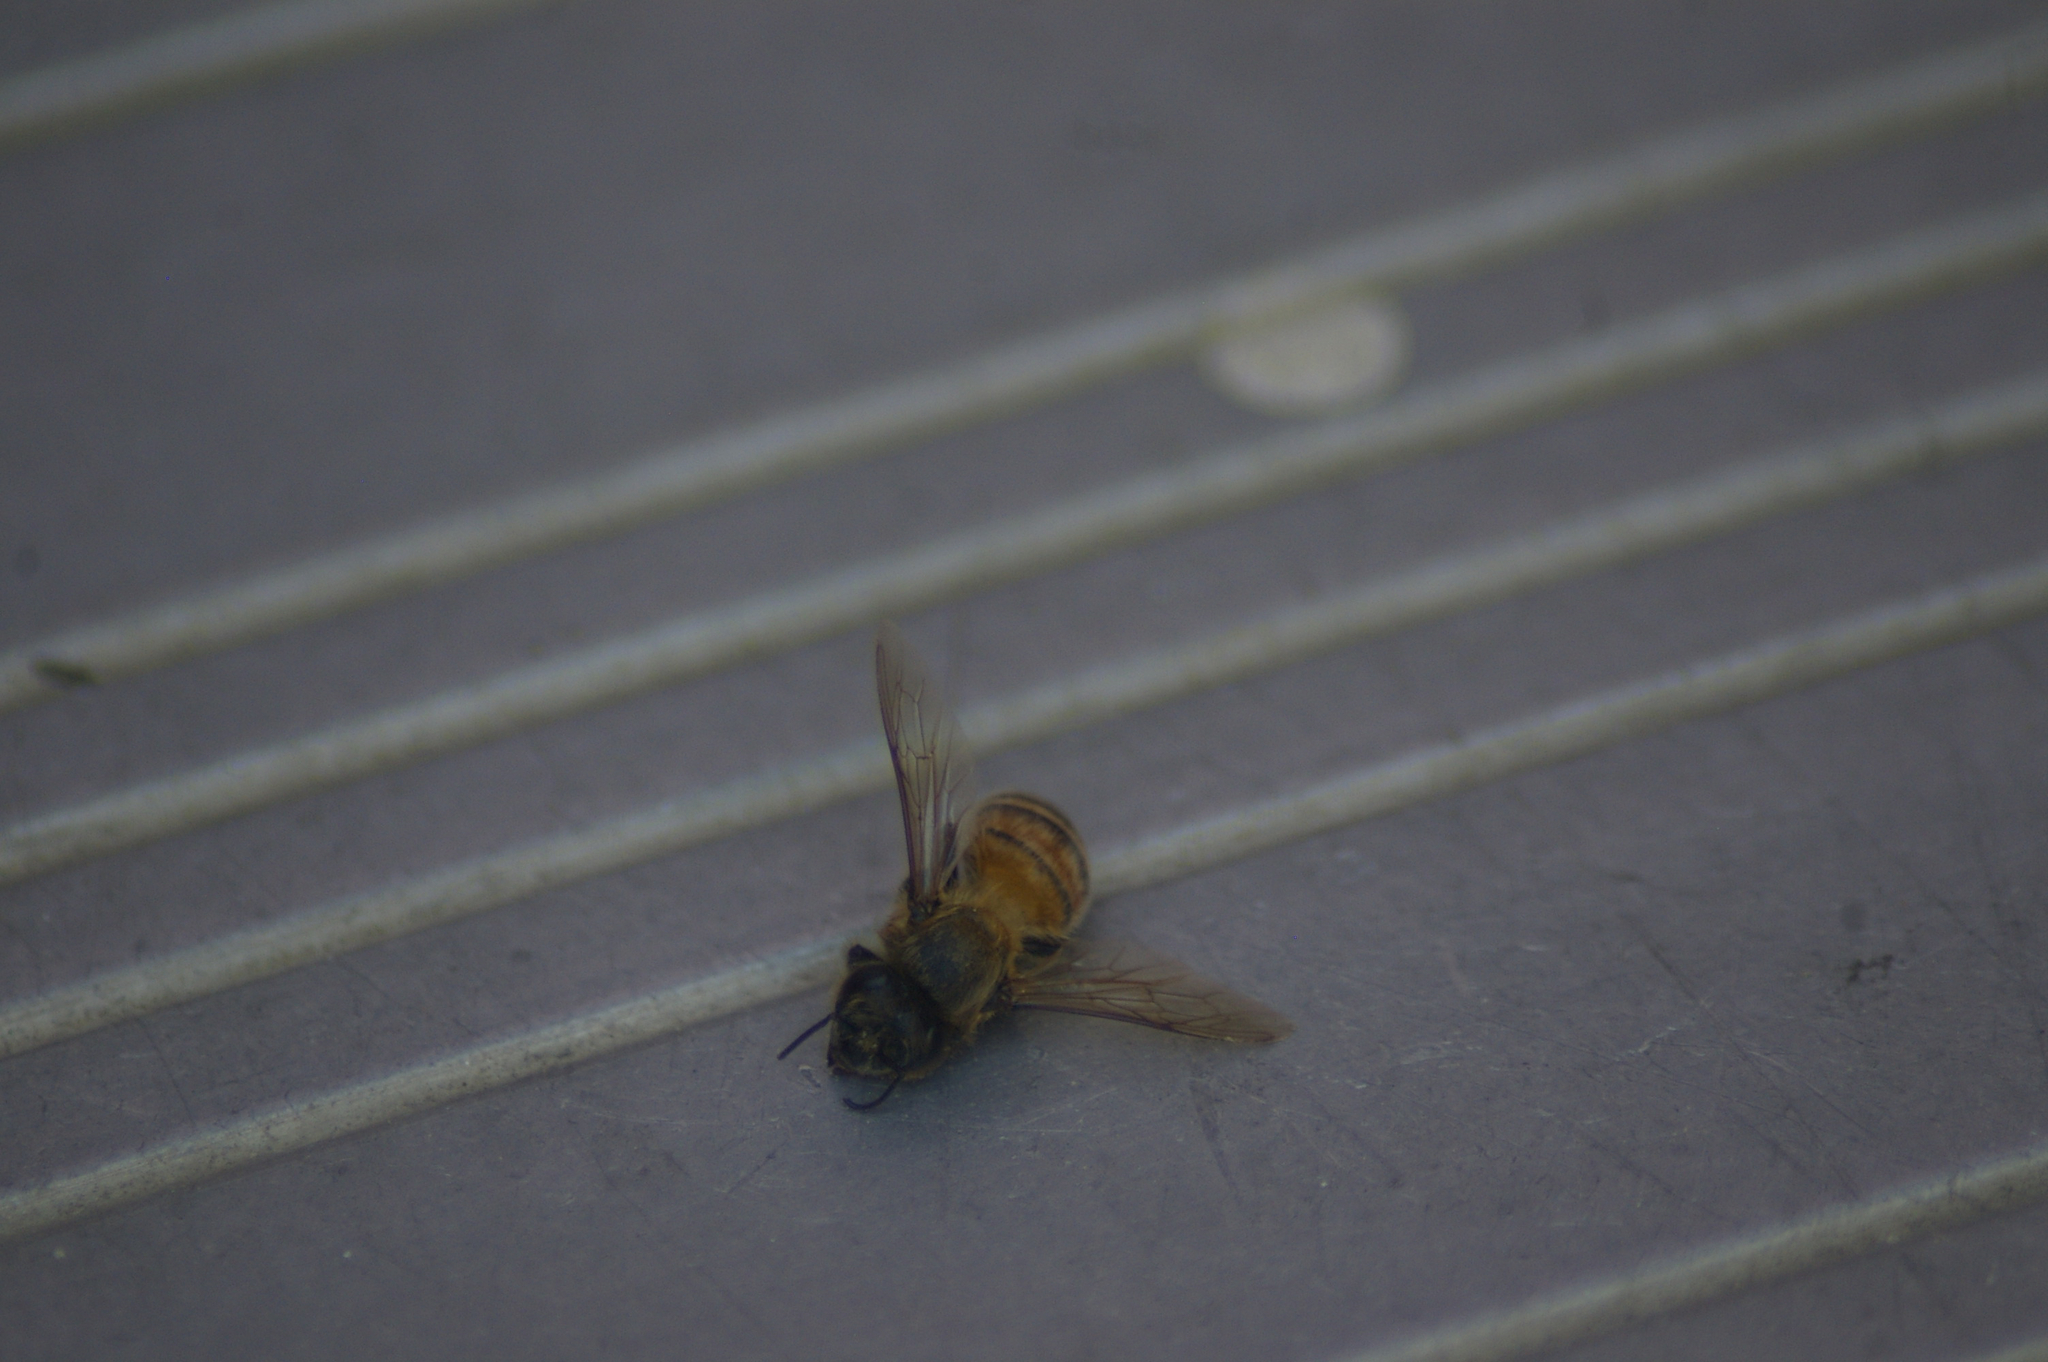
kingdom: Animalia
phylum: Arthropoda
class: Insecta
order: Hymenoptera
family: Apidae
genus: Apis
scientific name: Apis mellifera
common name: Honey bee
